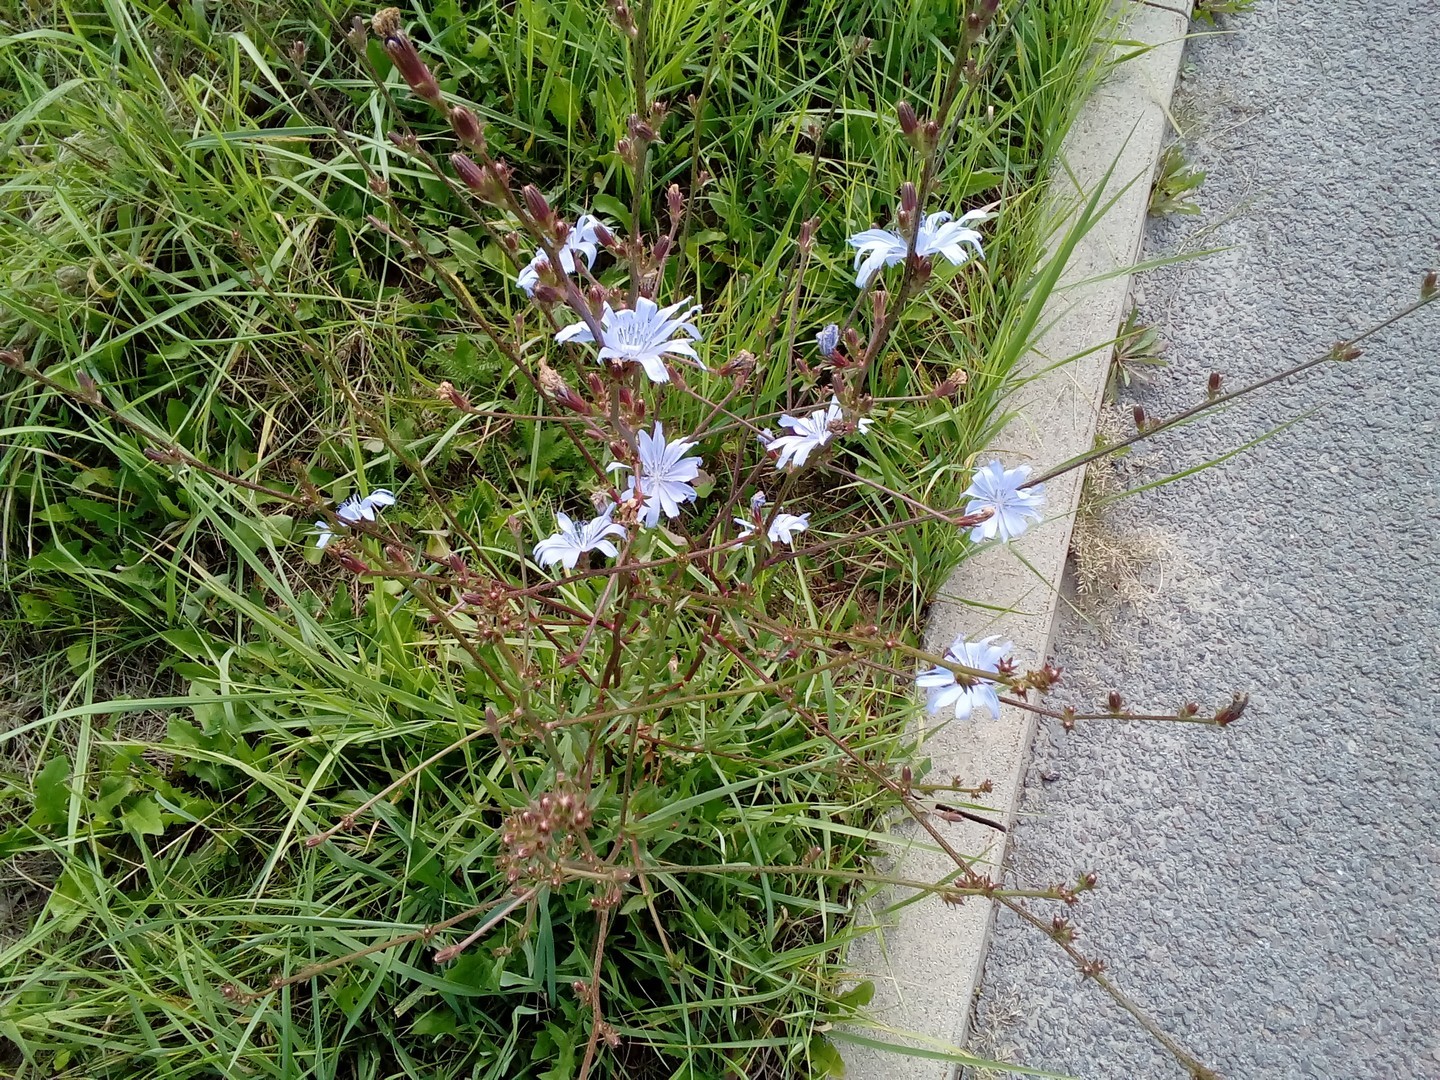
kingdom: Plantae
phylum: Tracheophyta
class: Magnoliopsida
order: Asterales
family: Asteraceae
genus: Cichorium
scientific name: Cichorium intybus
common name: Chicory
